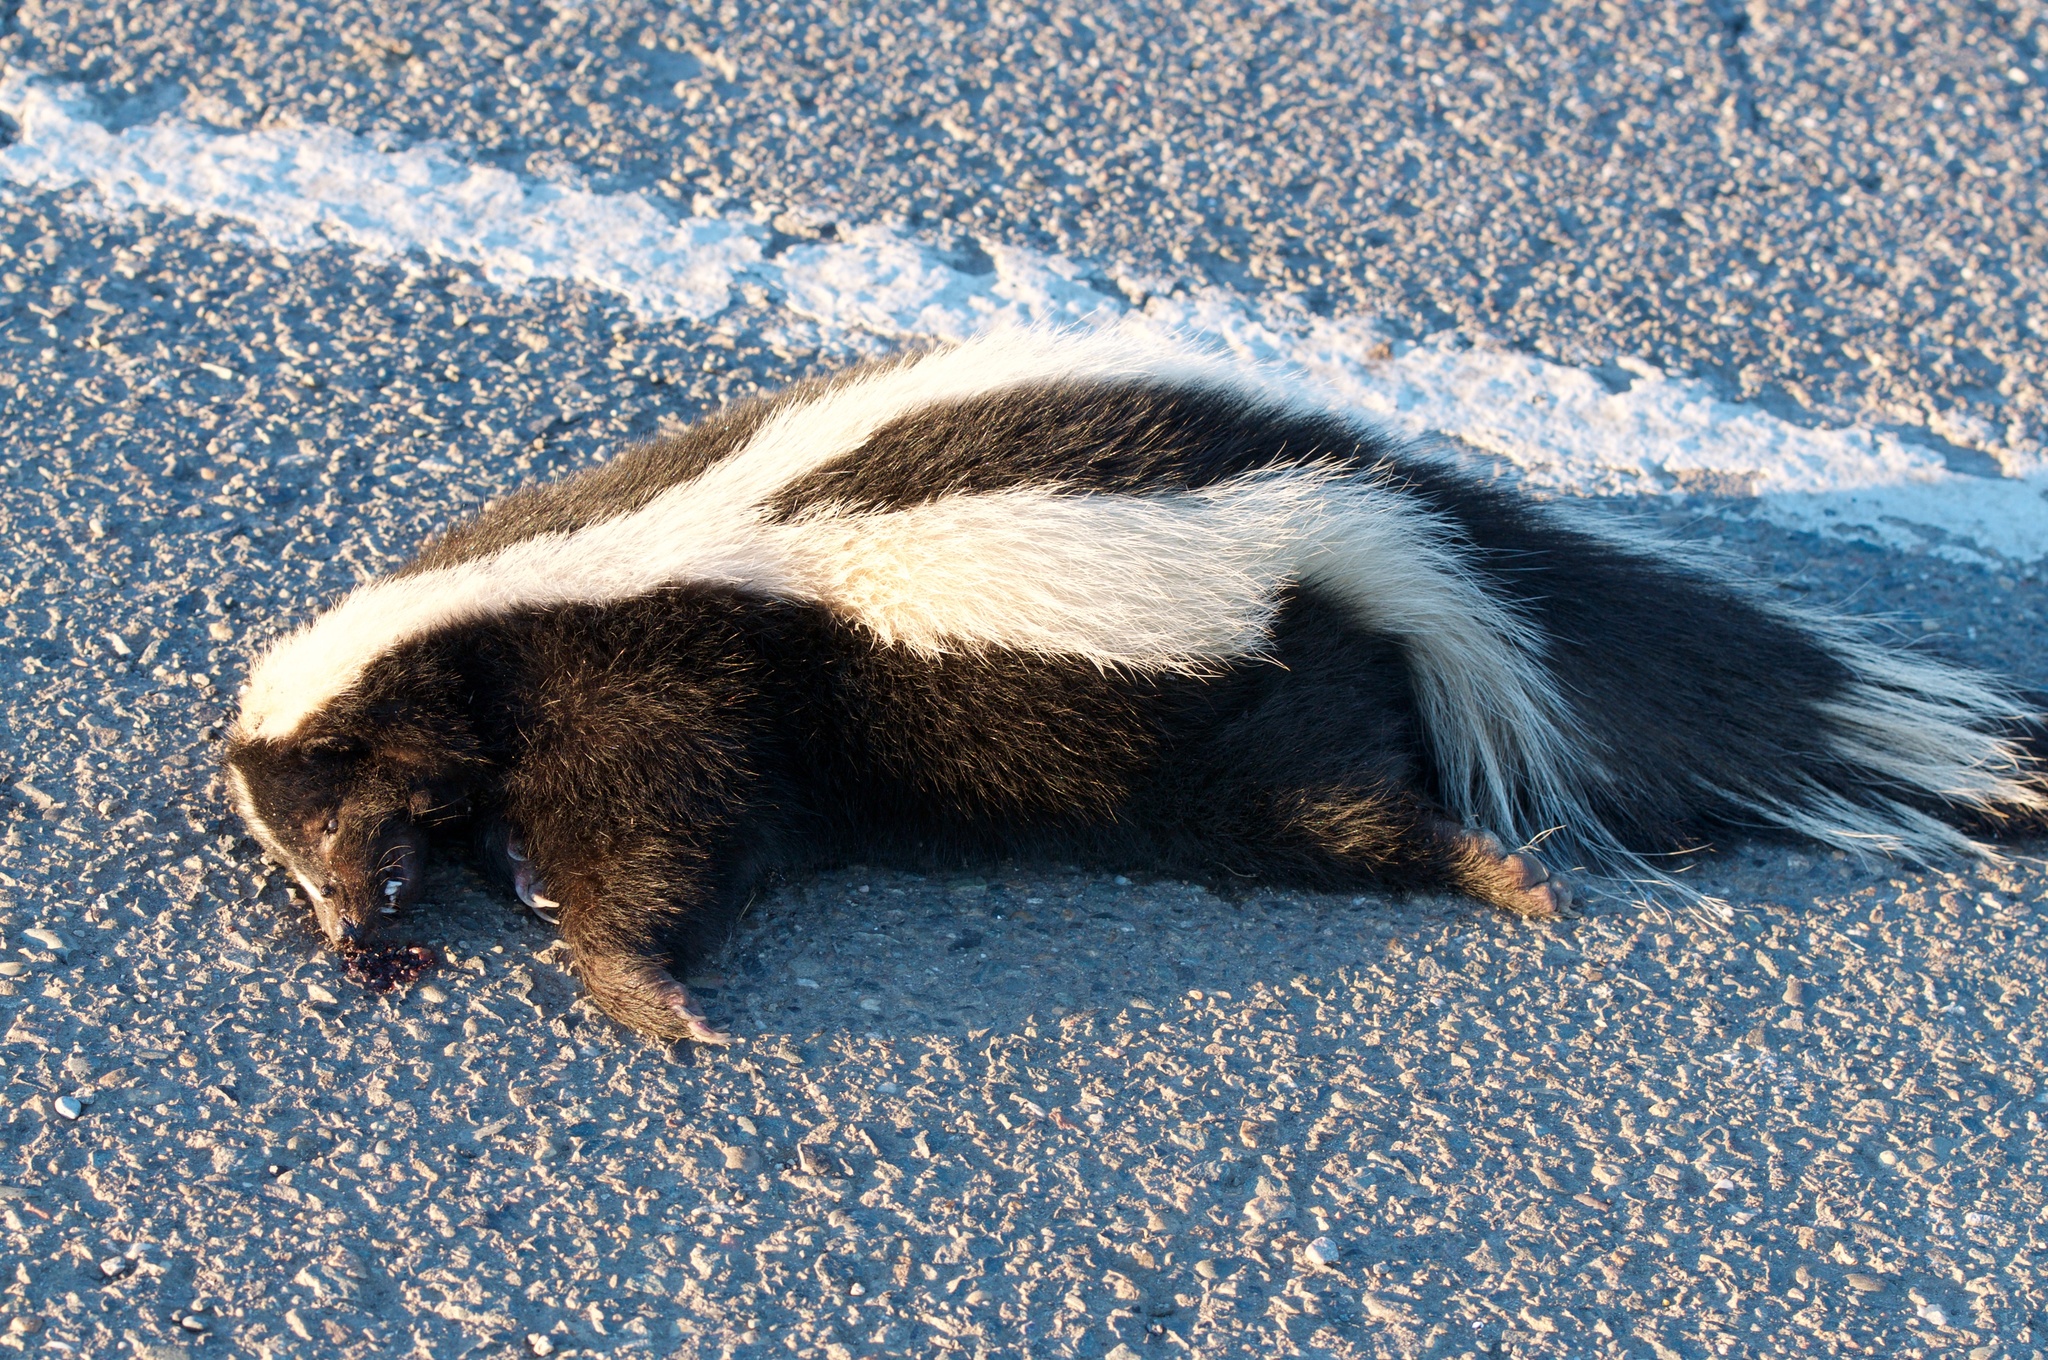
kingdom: Animalia
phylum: Chordata
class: Mammalia
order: Carnivora
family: Mephitidae
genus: Mephitis
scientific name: Mephitis mephitis
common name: Striped skunk
